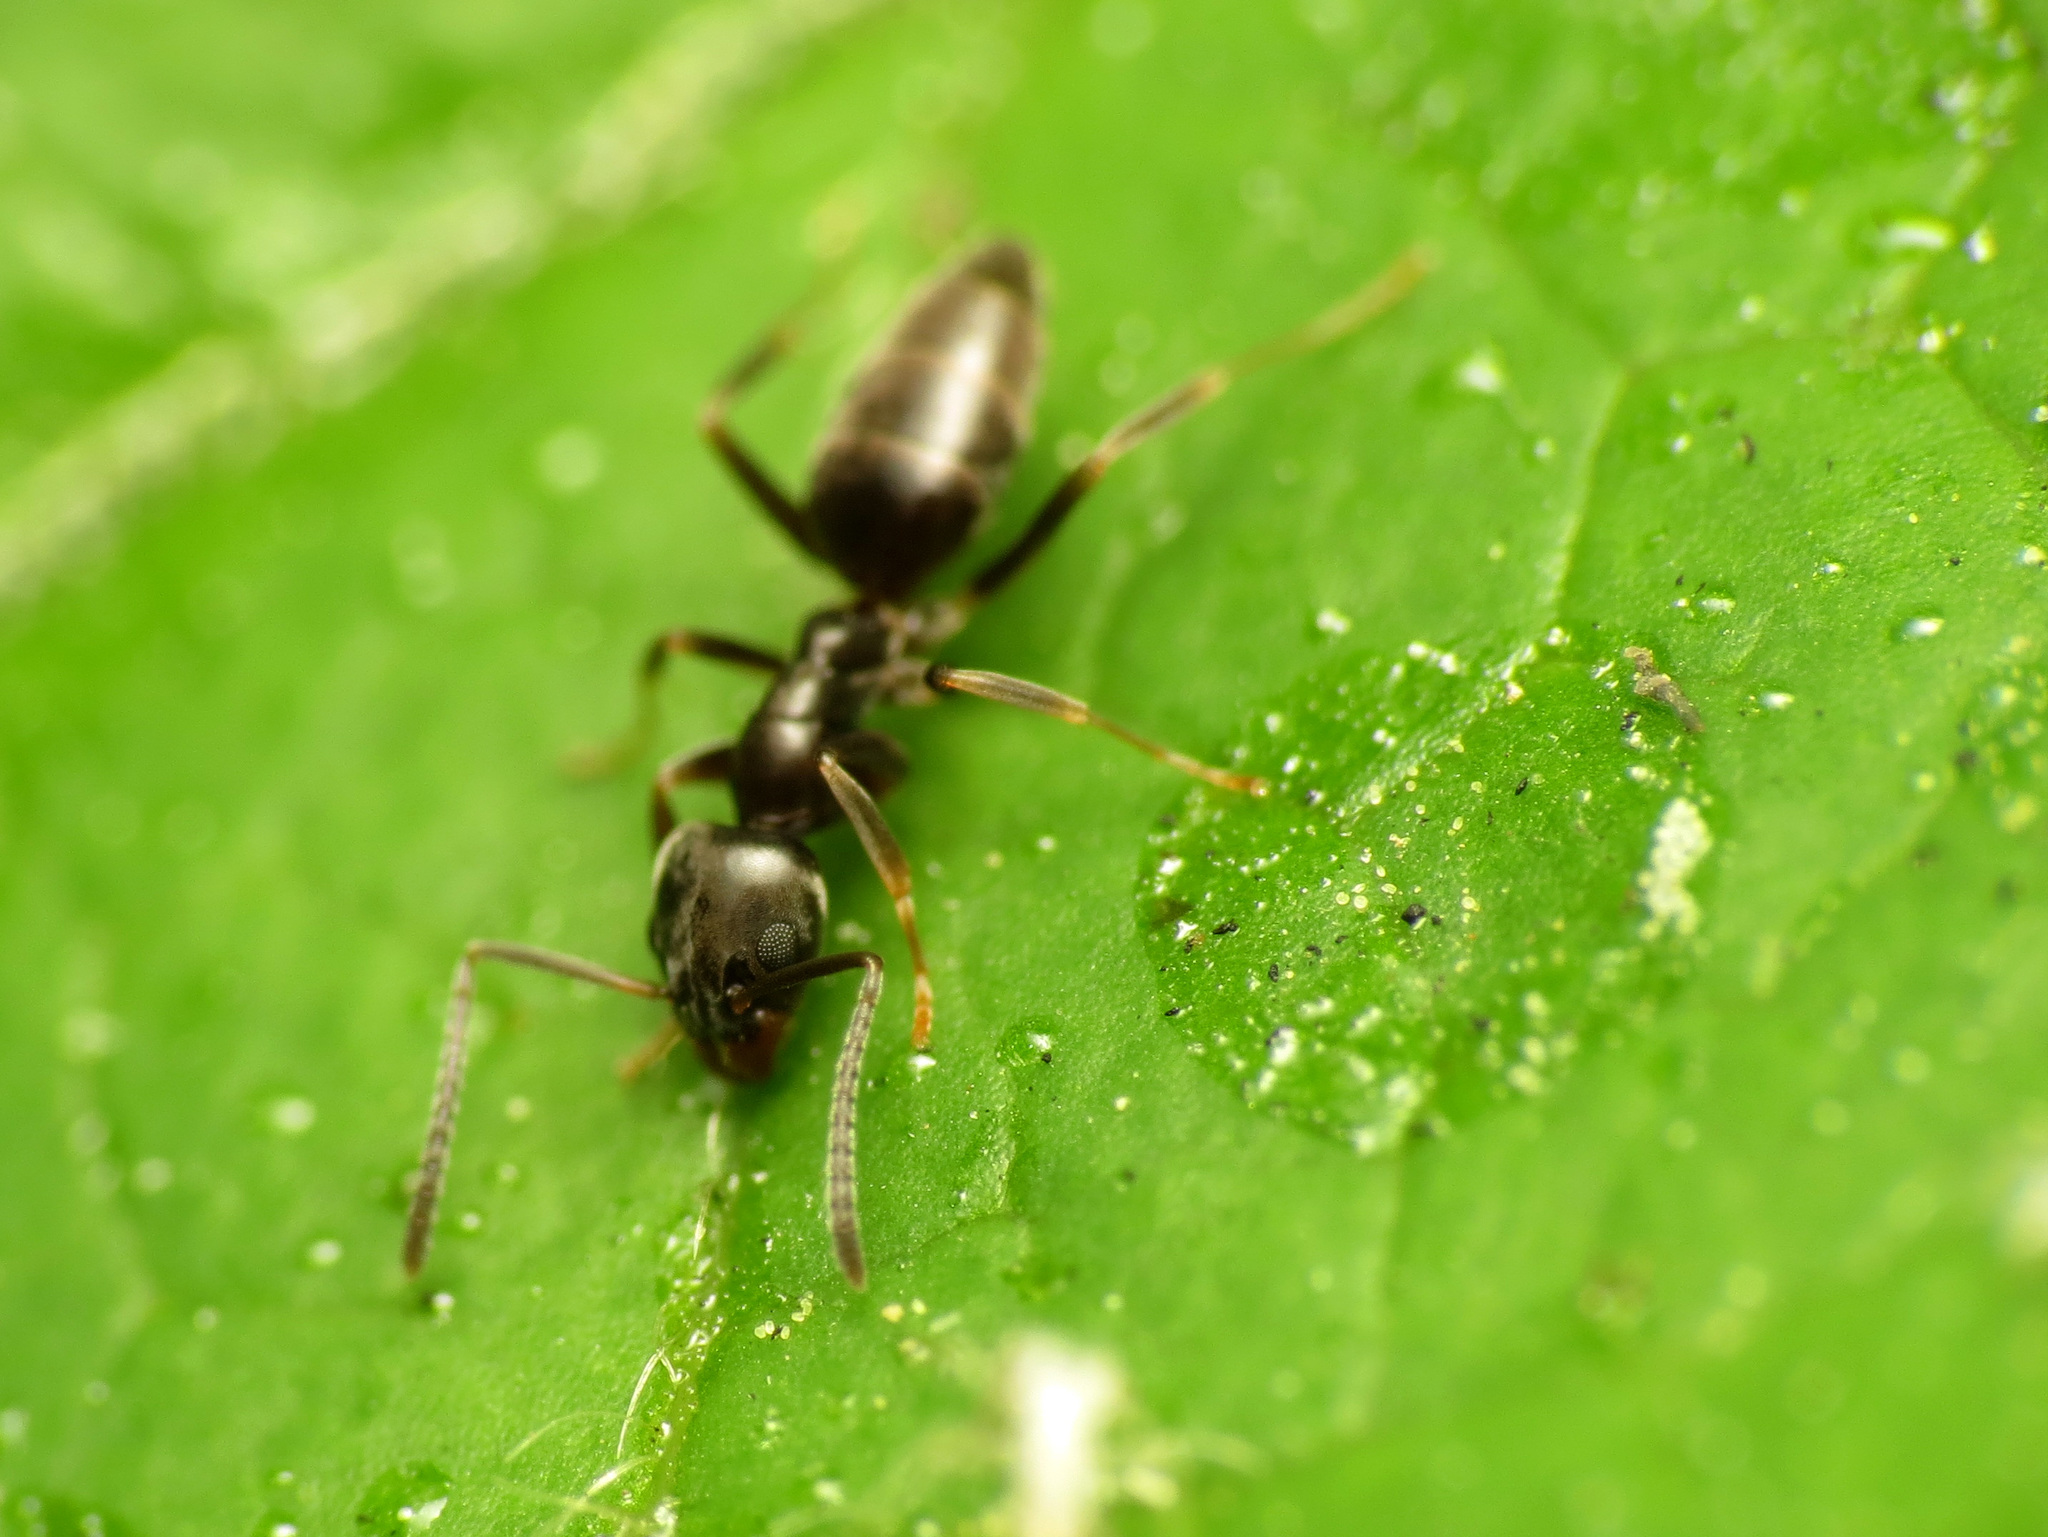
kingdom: Animalia
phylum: Arthropoda
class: Insecta
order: Hymenoptera
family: Formicidae
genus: Tapinoma
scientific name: Tapinoma sessile
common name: Odorous house ant
